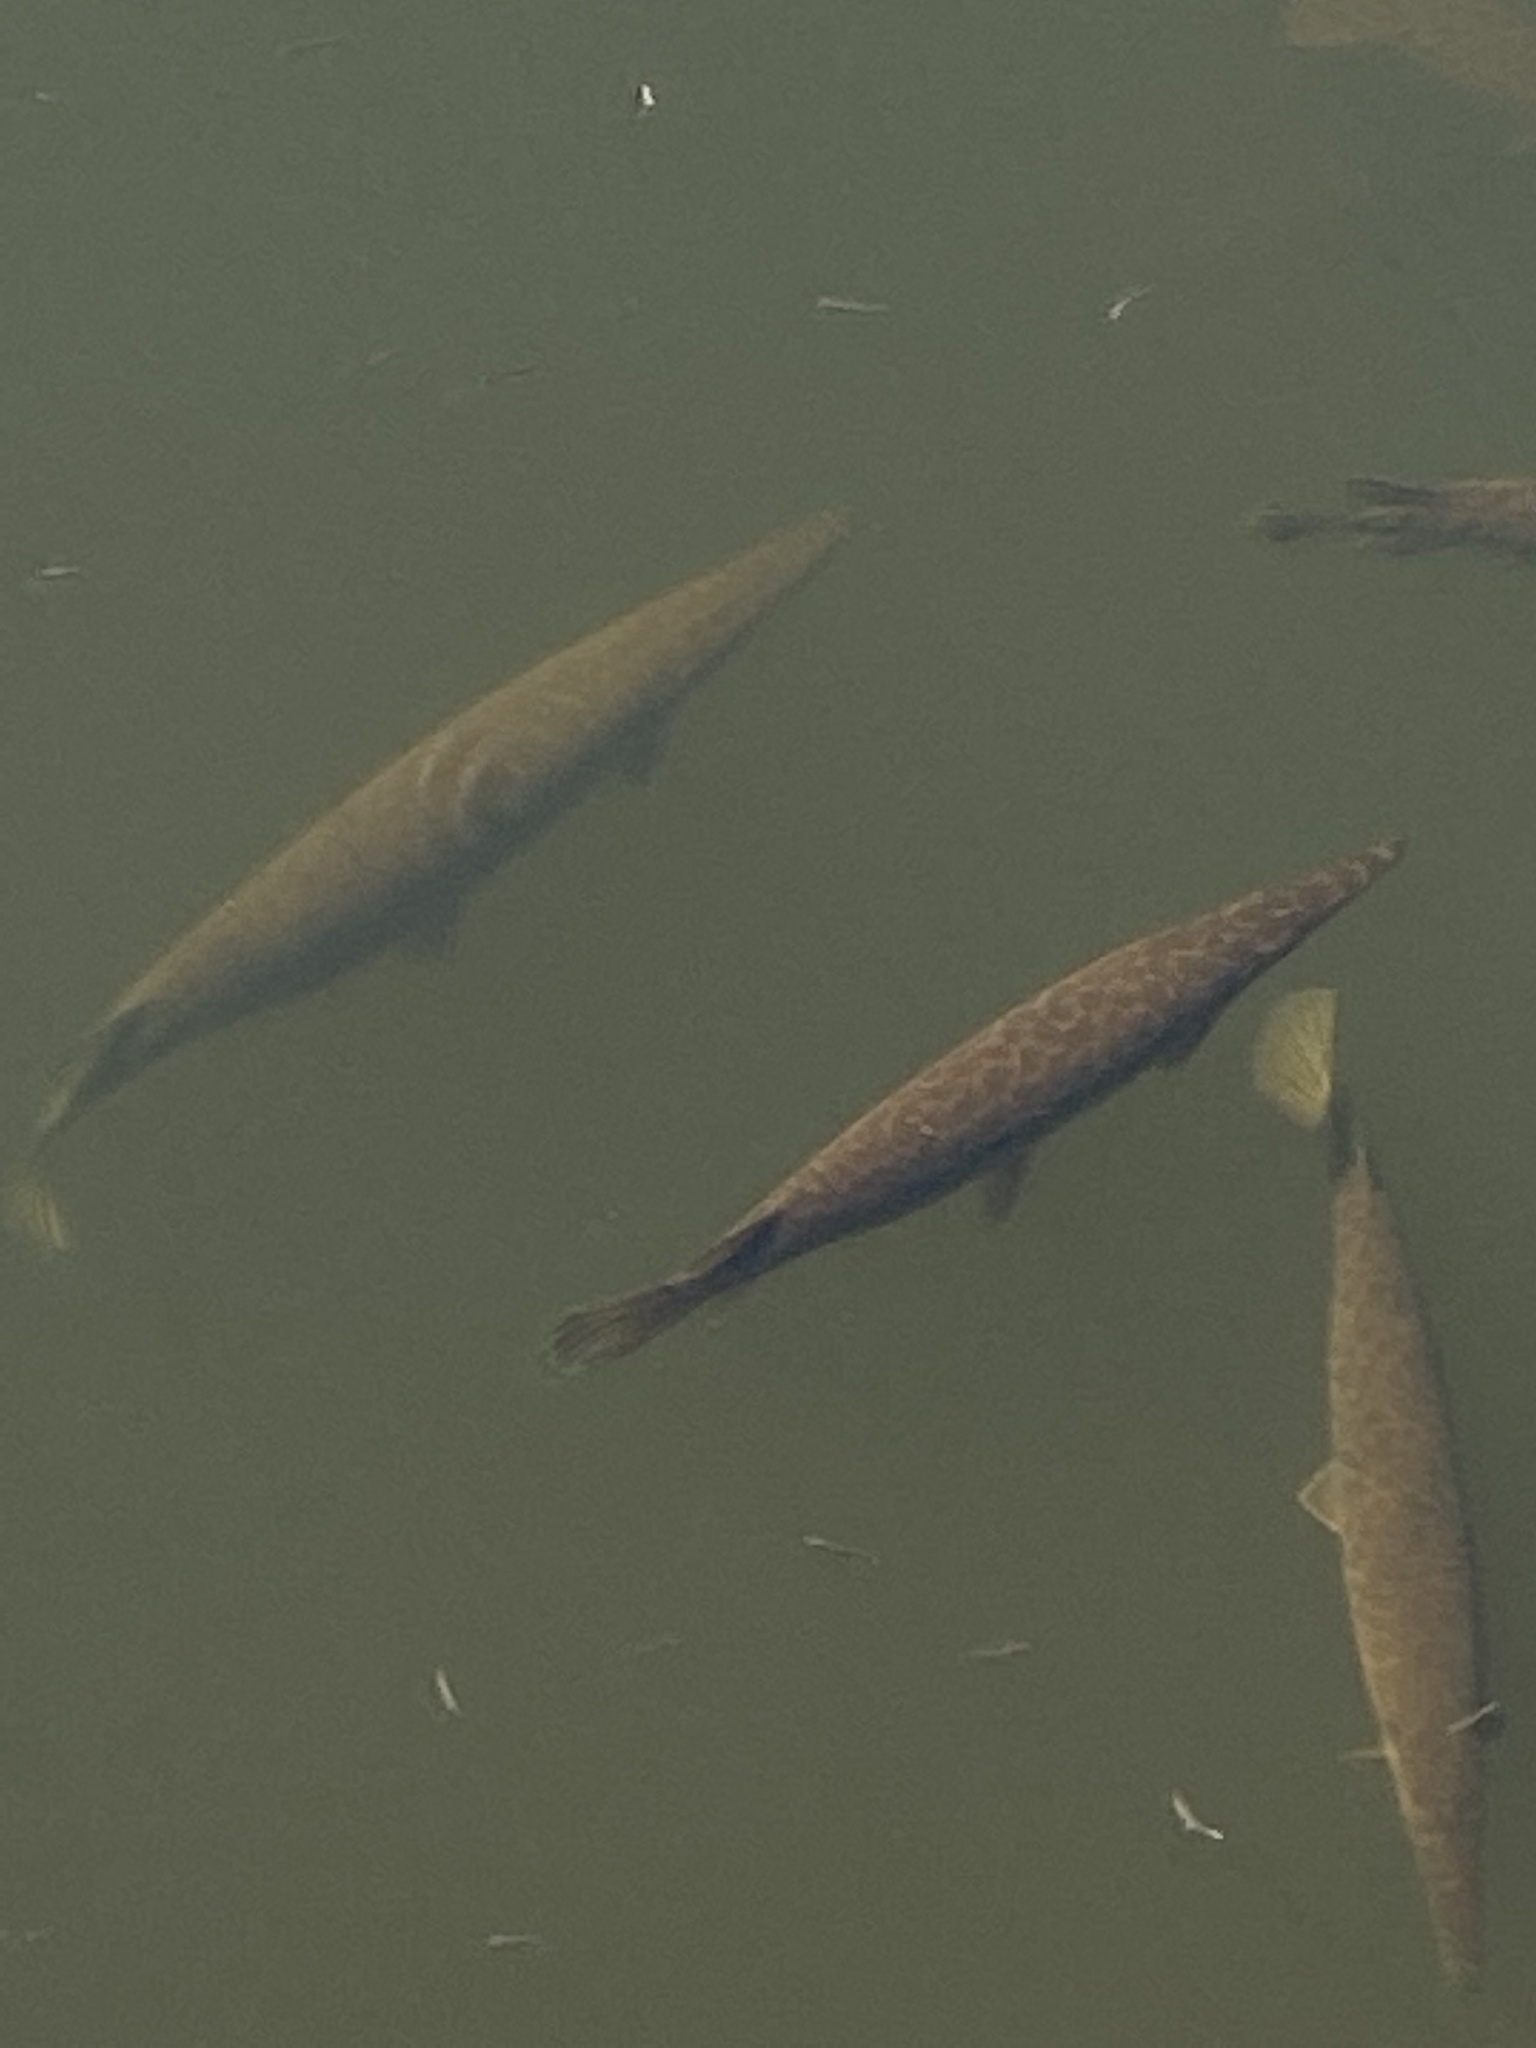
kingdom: Animalia
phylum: Chordata
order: Lepisosteiformes
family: Lepisosteidae
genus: Lepisosteus
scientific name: Lepisosteus platyrhincus
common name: Florida gar
